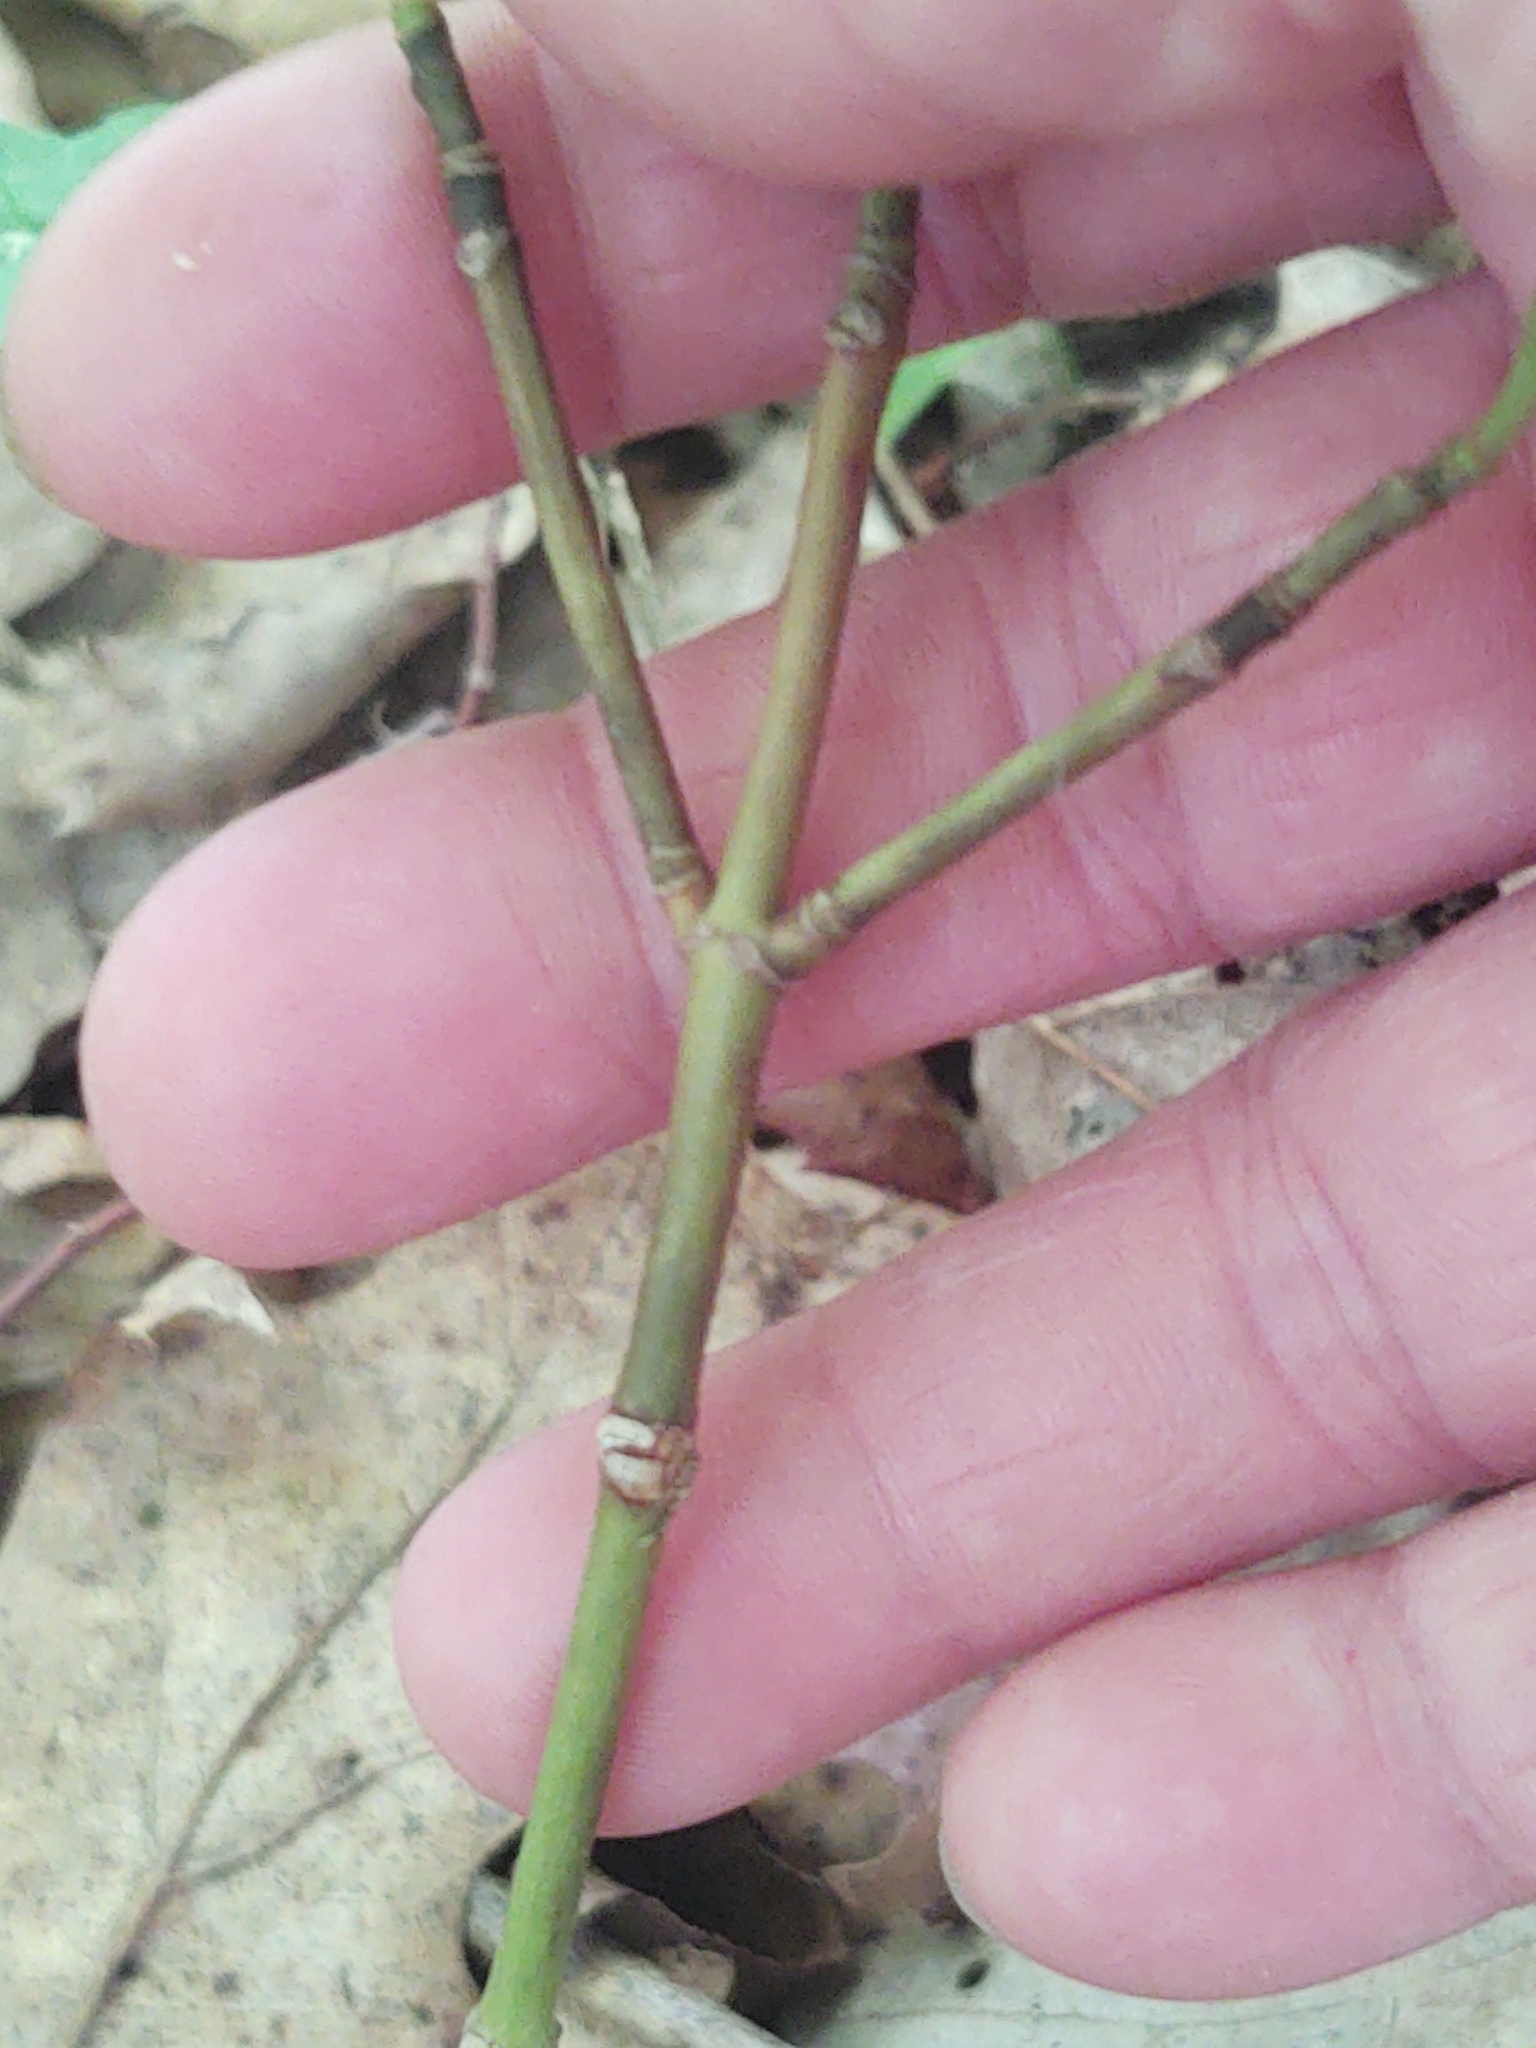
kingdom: Plantae
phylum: Tracheophyta
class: Magnoliopsida
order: Sapindales
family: Sapindaceae
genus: Acer
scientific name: Acer pensylvanicum
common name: Moosewood
